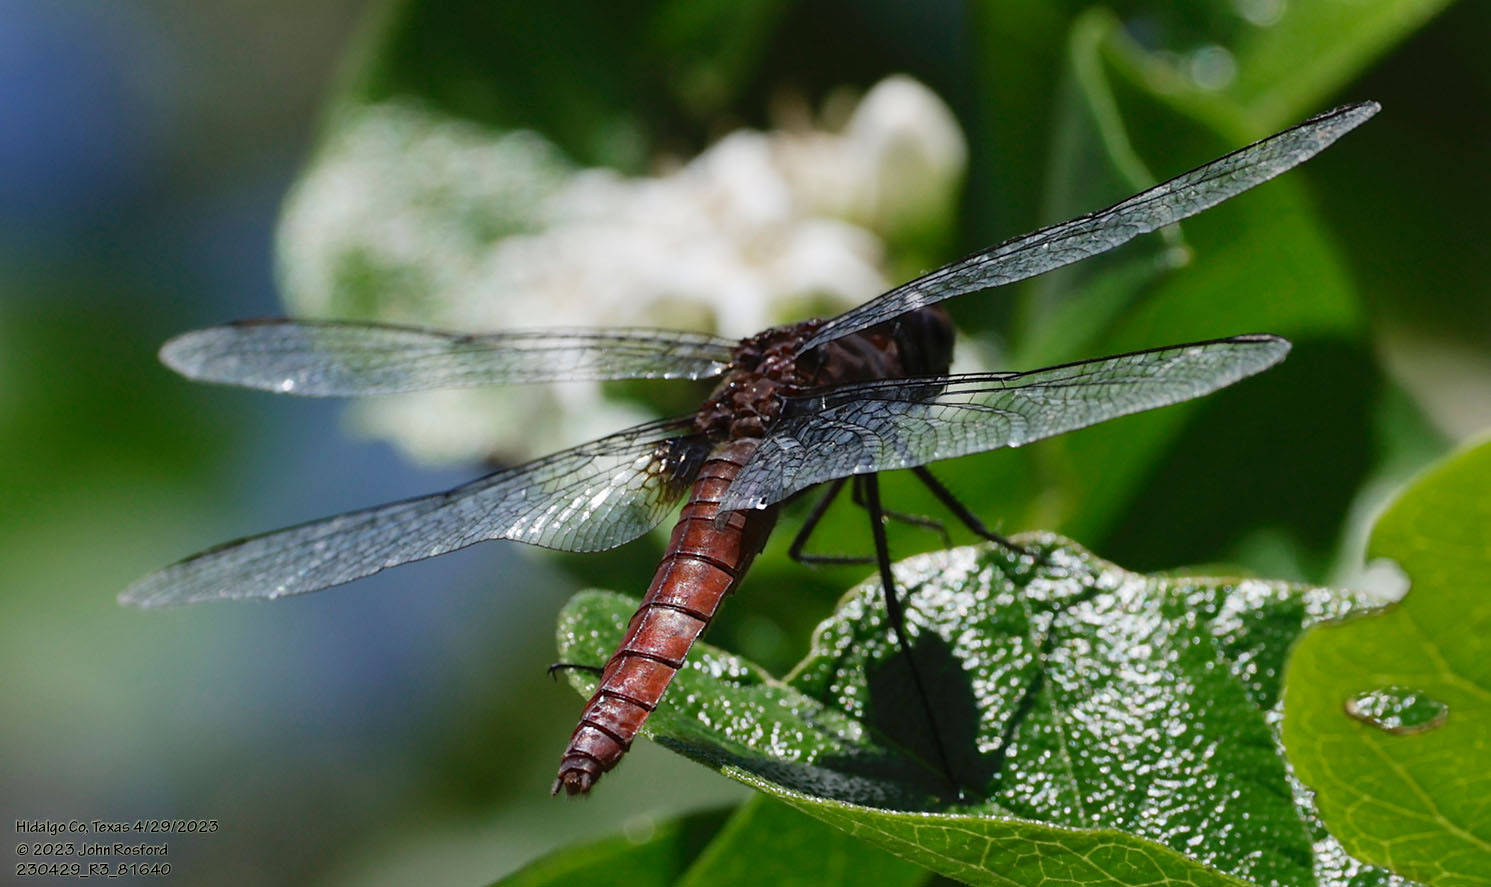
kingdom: Animalia
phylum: Arthropoda
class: Insecta
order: Odonata
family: Libellulidae
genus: Planiplax
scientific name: Planiplax sanguiniventris
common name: Mexican scarlet-tail
